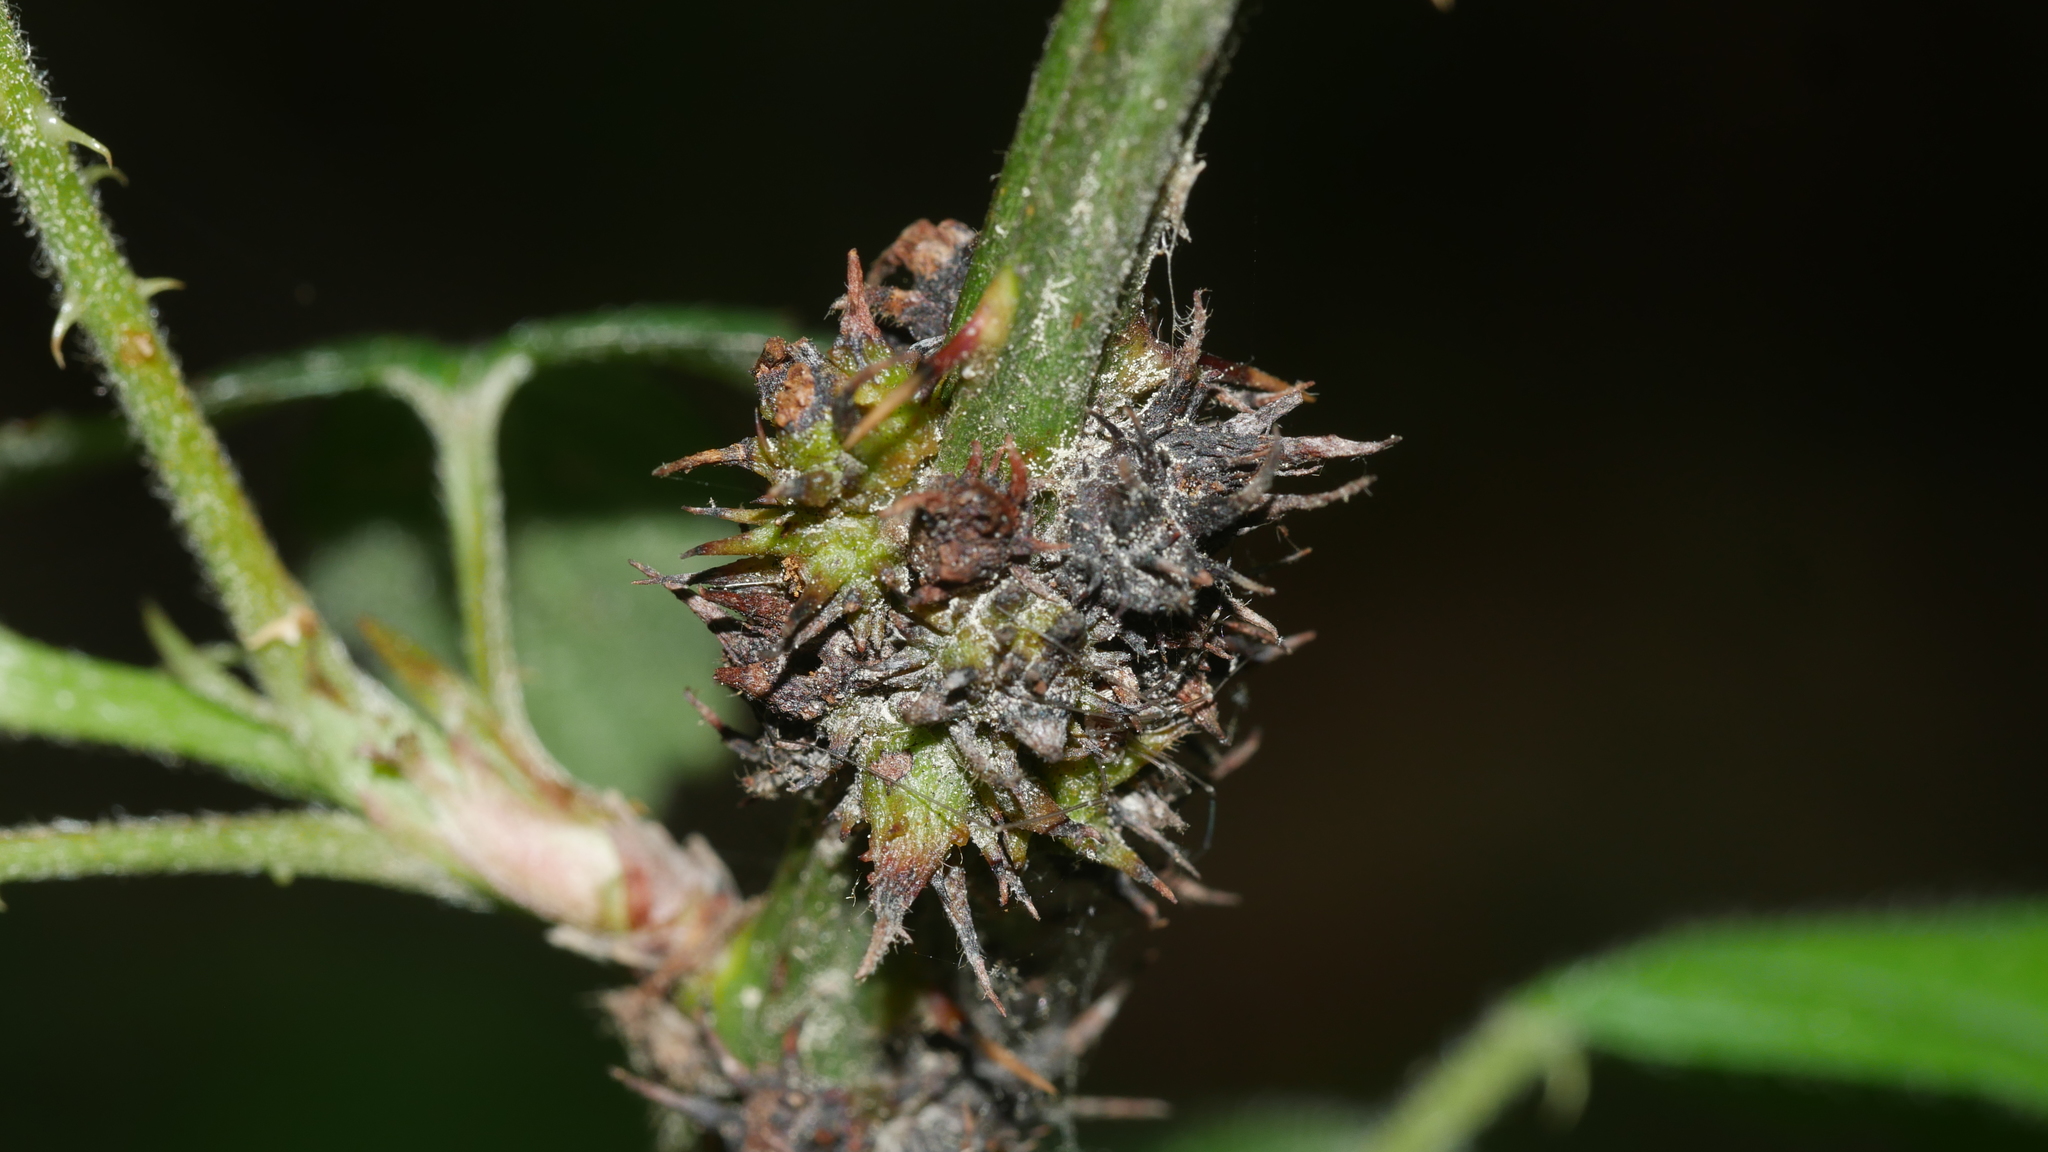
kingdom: Animalia
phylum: Arthropoda
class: Insecta
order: Hymenoptera
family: Cynipidae
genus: Diastrophus
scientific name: Diastrophus
